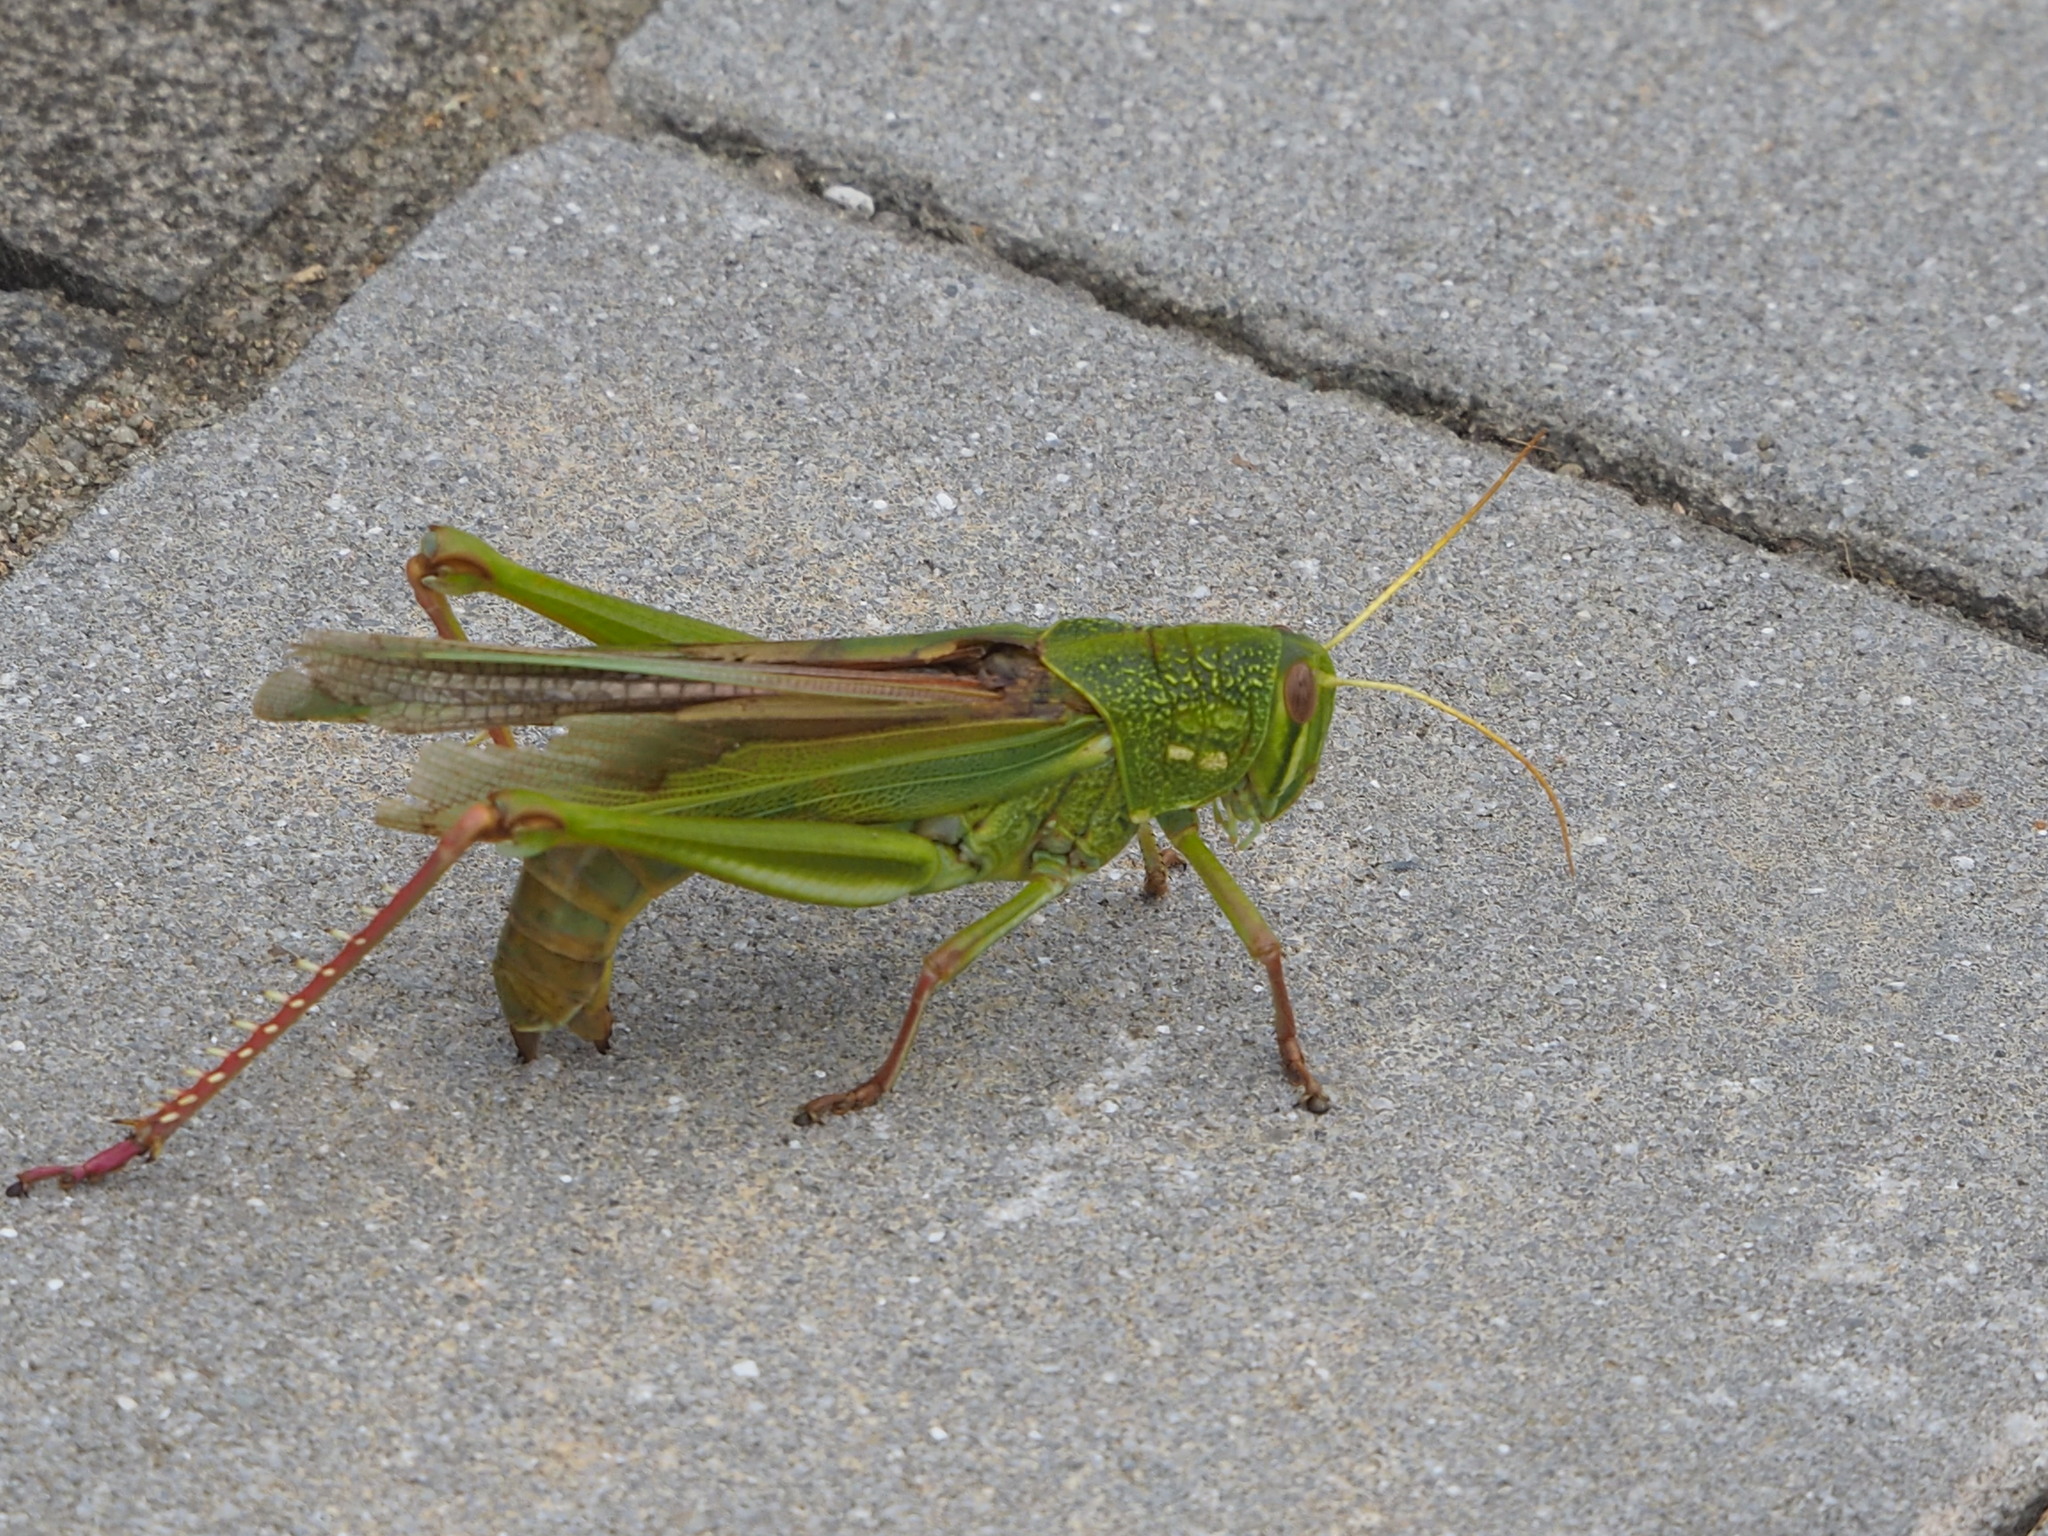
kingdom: Animalia
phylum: Arthropoda
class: Insecta
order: Orthoptera
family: Acrididae
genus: Chondracris
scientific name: Chondracris rosea
